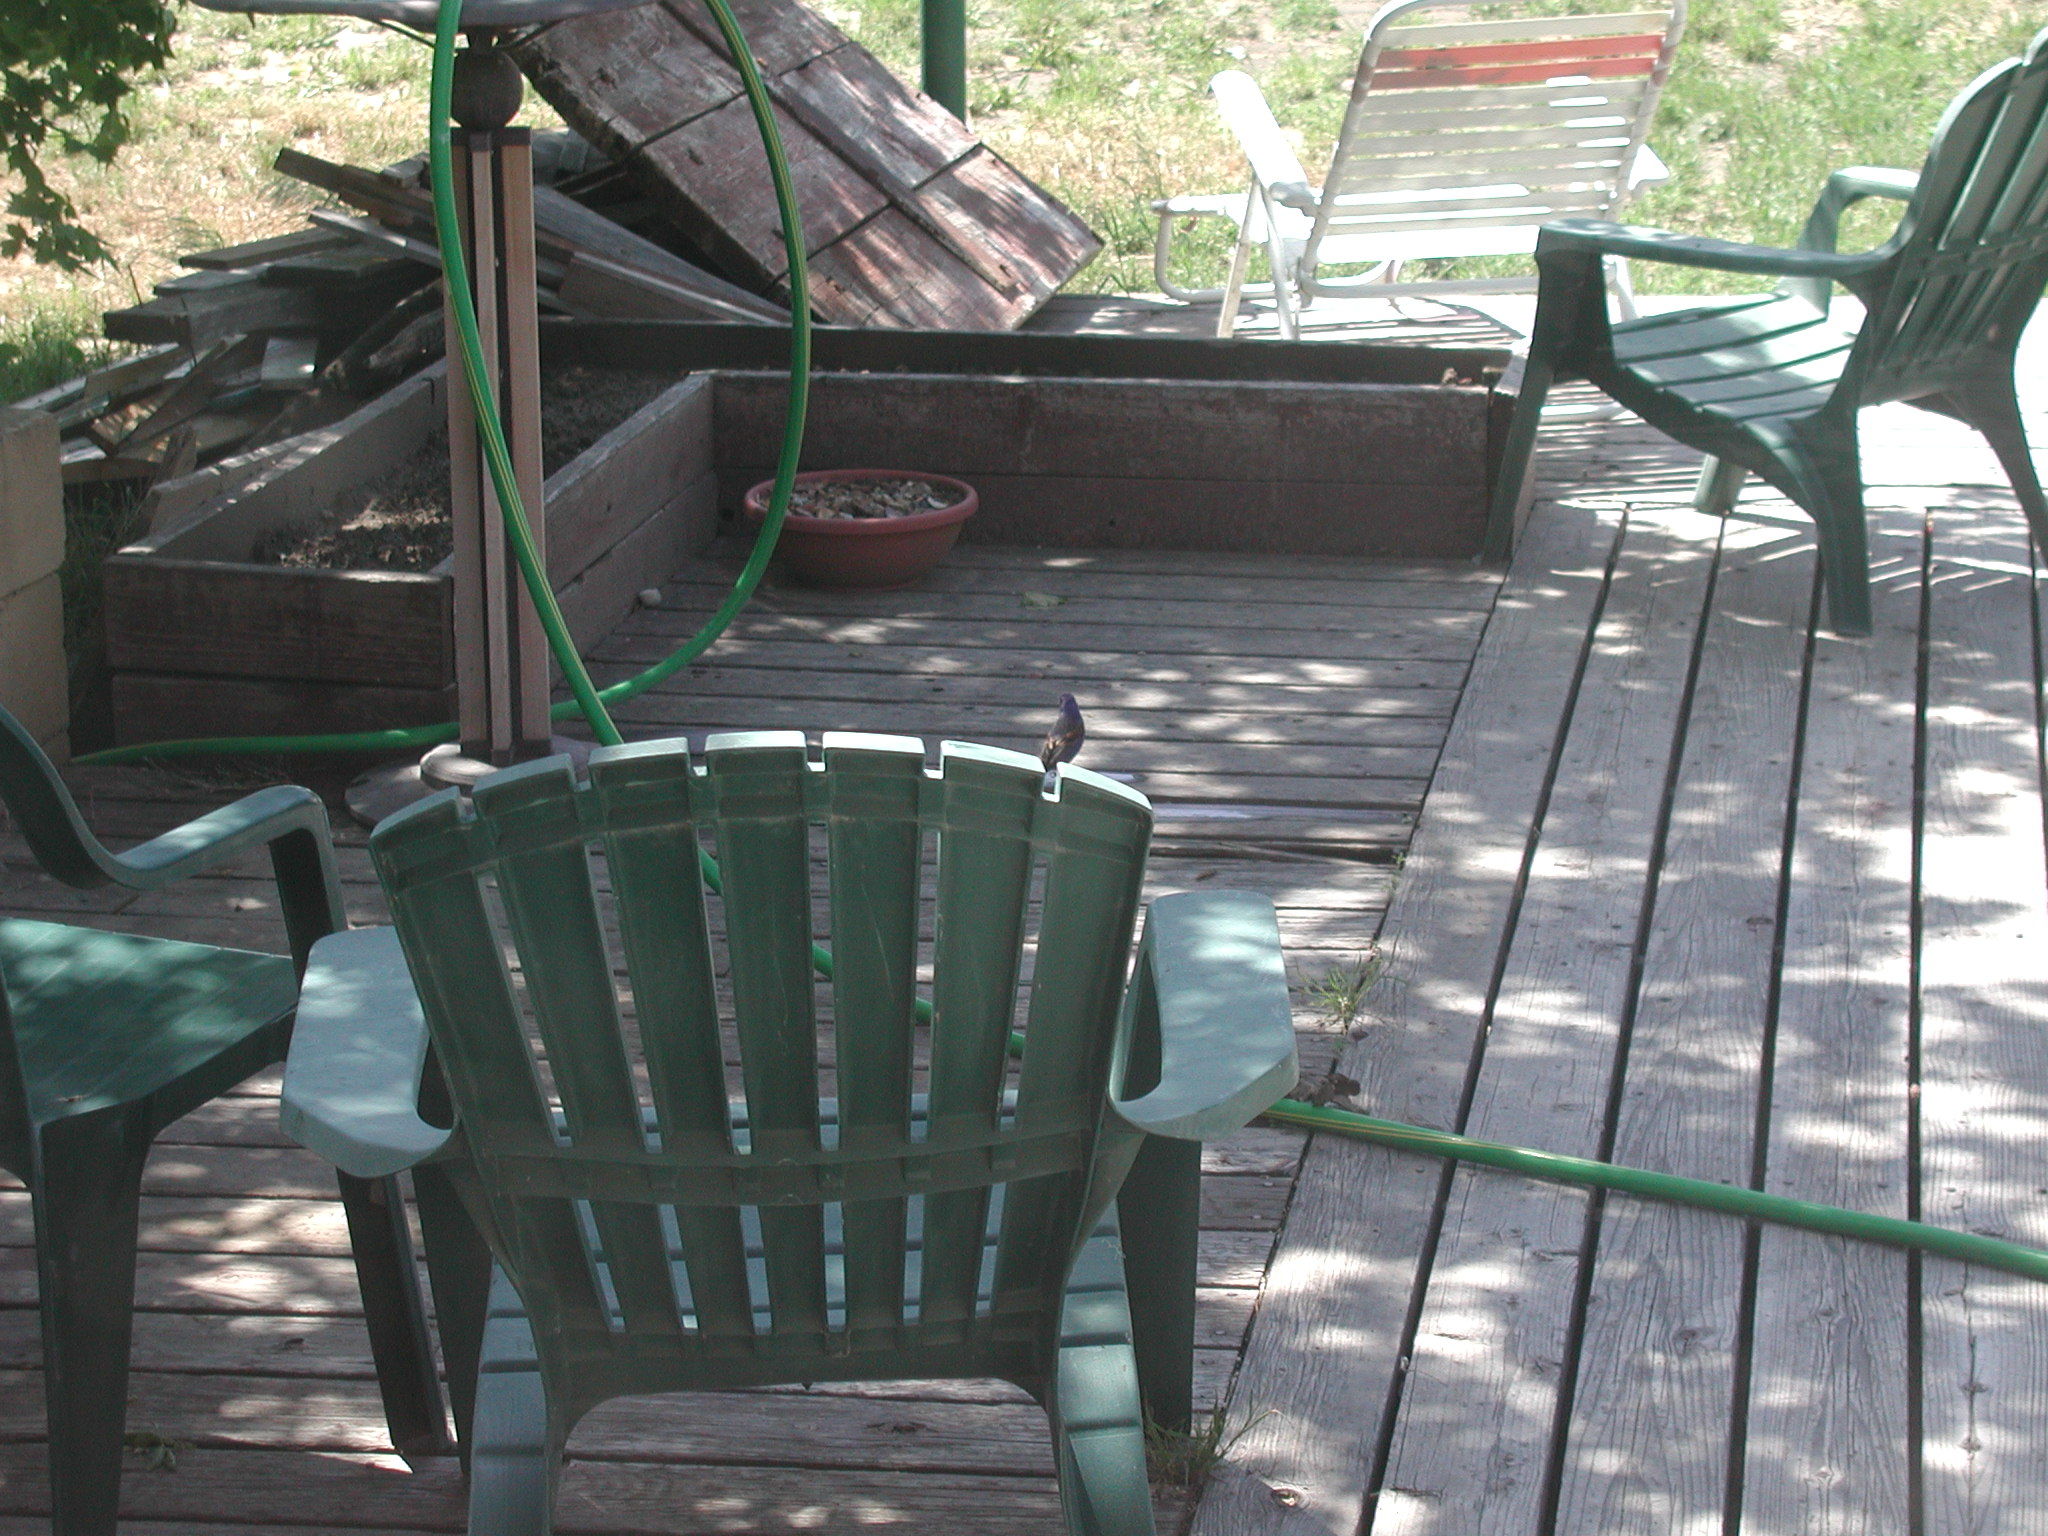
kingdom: Animalia
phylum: Chordata
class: Aves
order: Passeriformes
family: Cardinalidae
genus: Passerina
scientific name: Passerina caerulea
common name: Blue grosbeak
